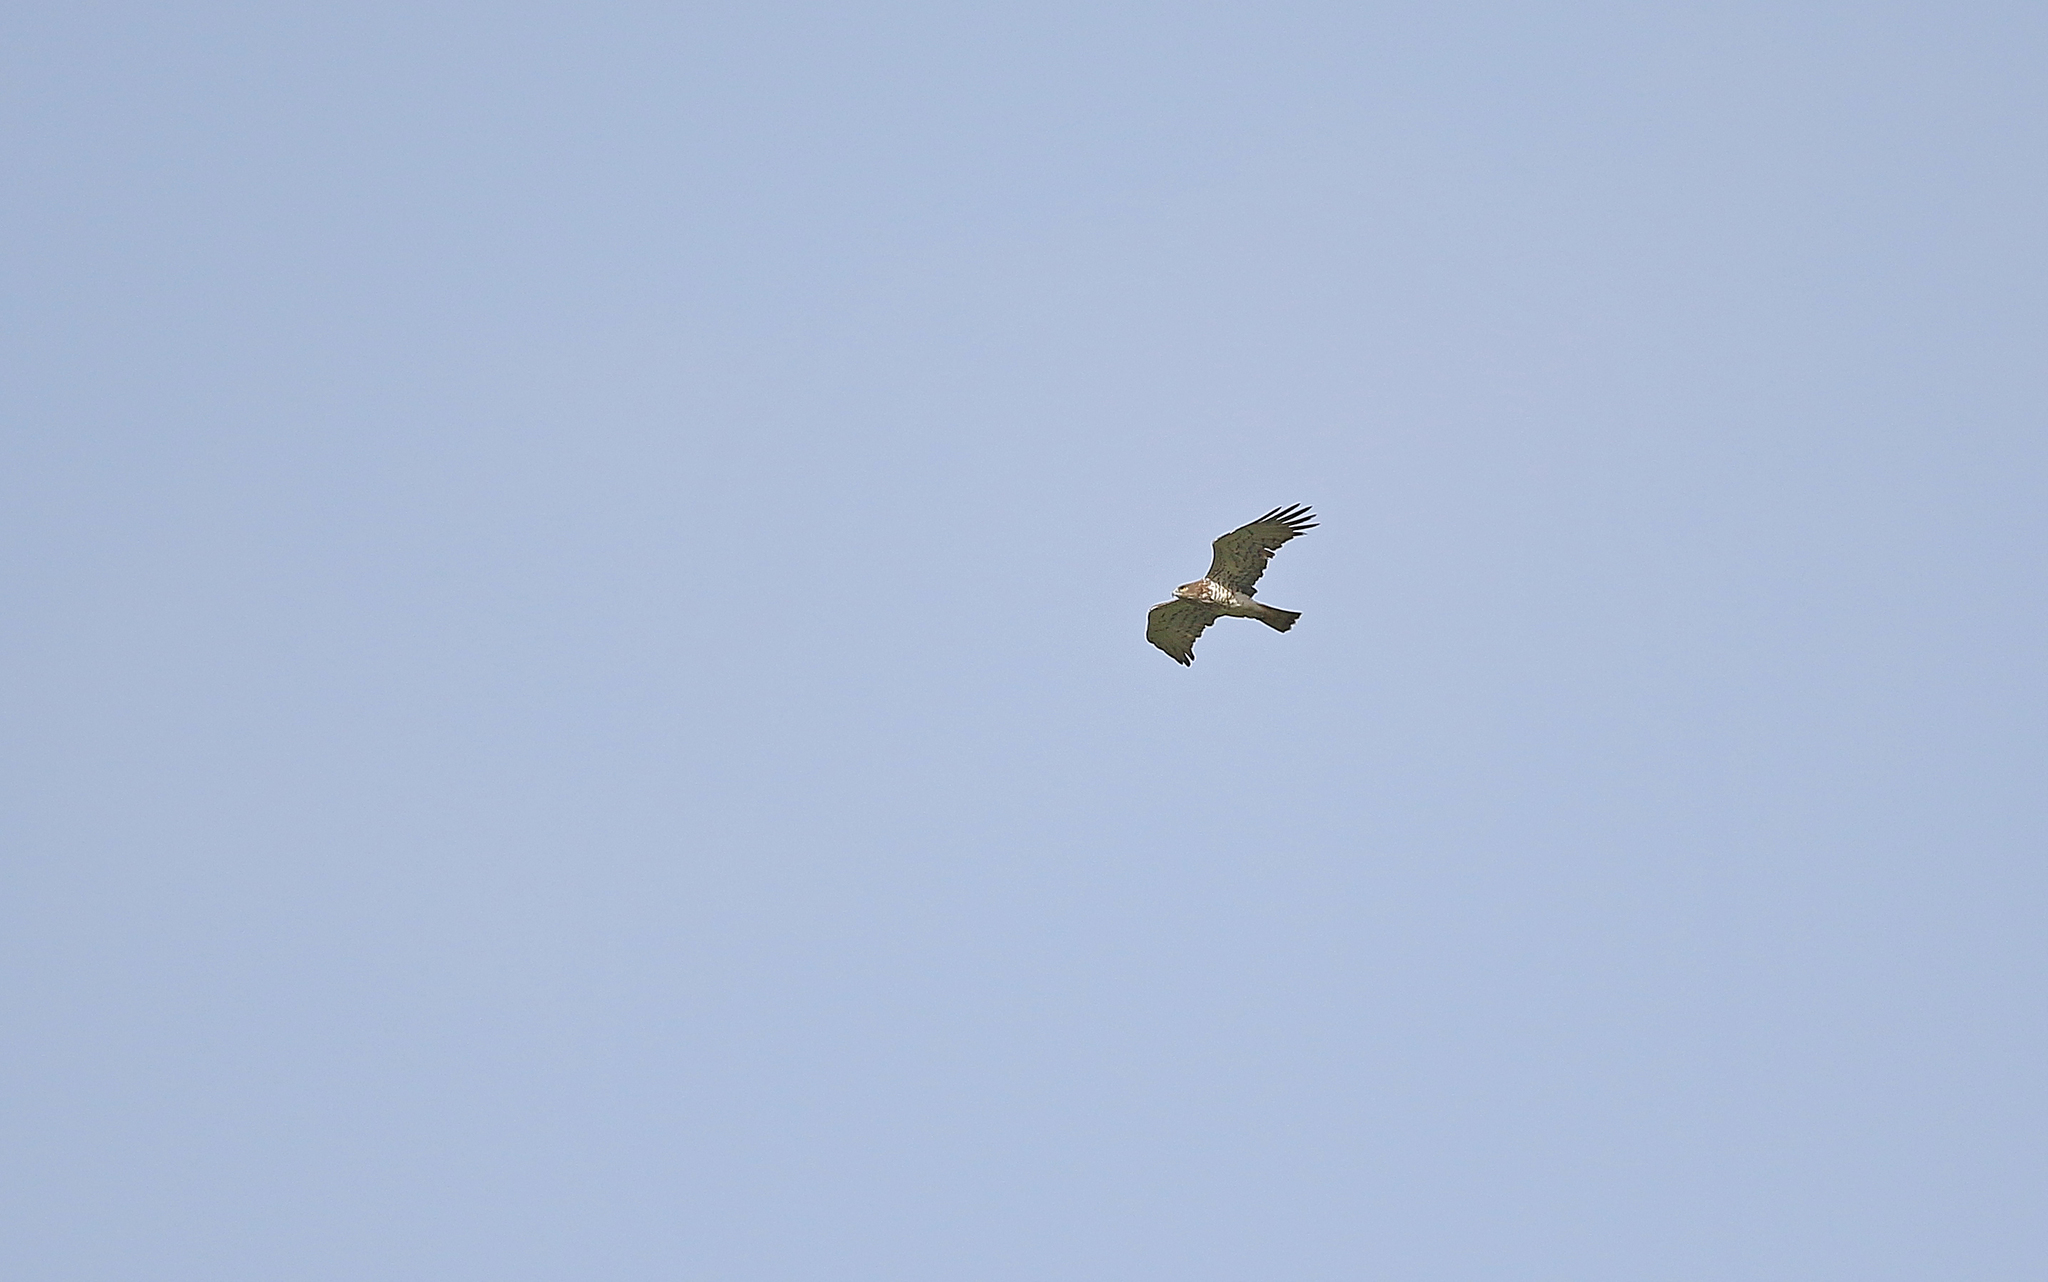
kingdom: Animalia
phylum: Chordata
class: Aves
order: Accipitriformes
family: Accipitridae
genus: Circaetus
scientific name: Circaetus gallicus
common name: Short-toed snake eagle
